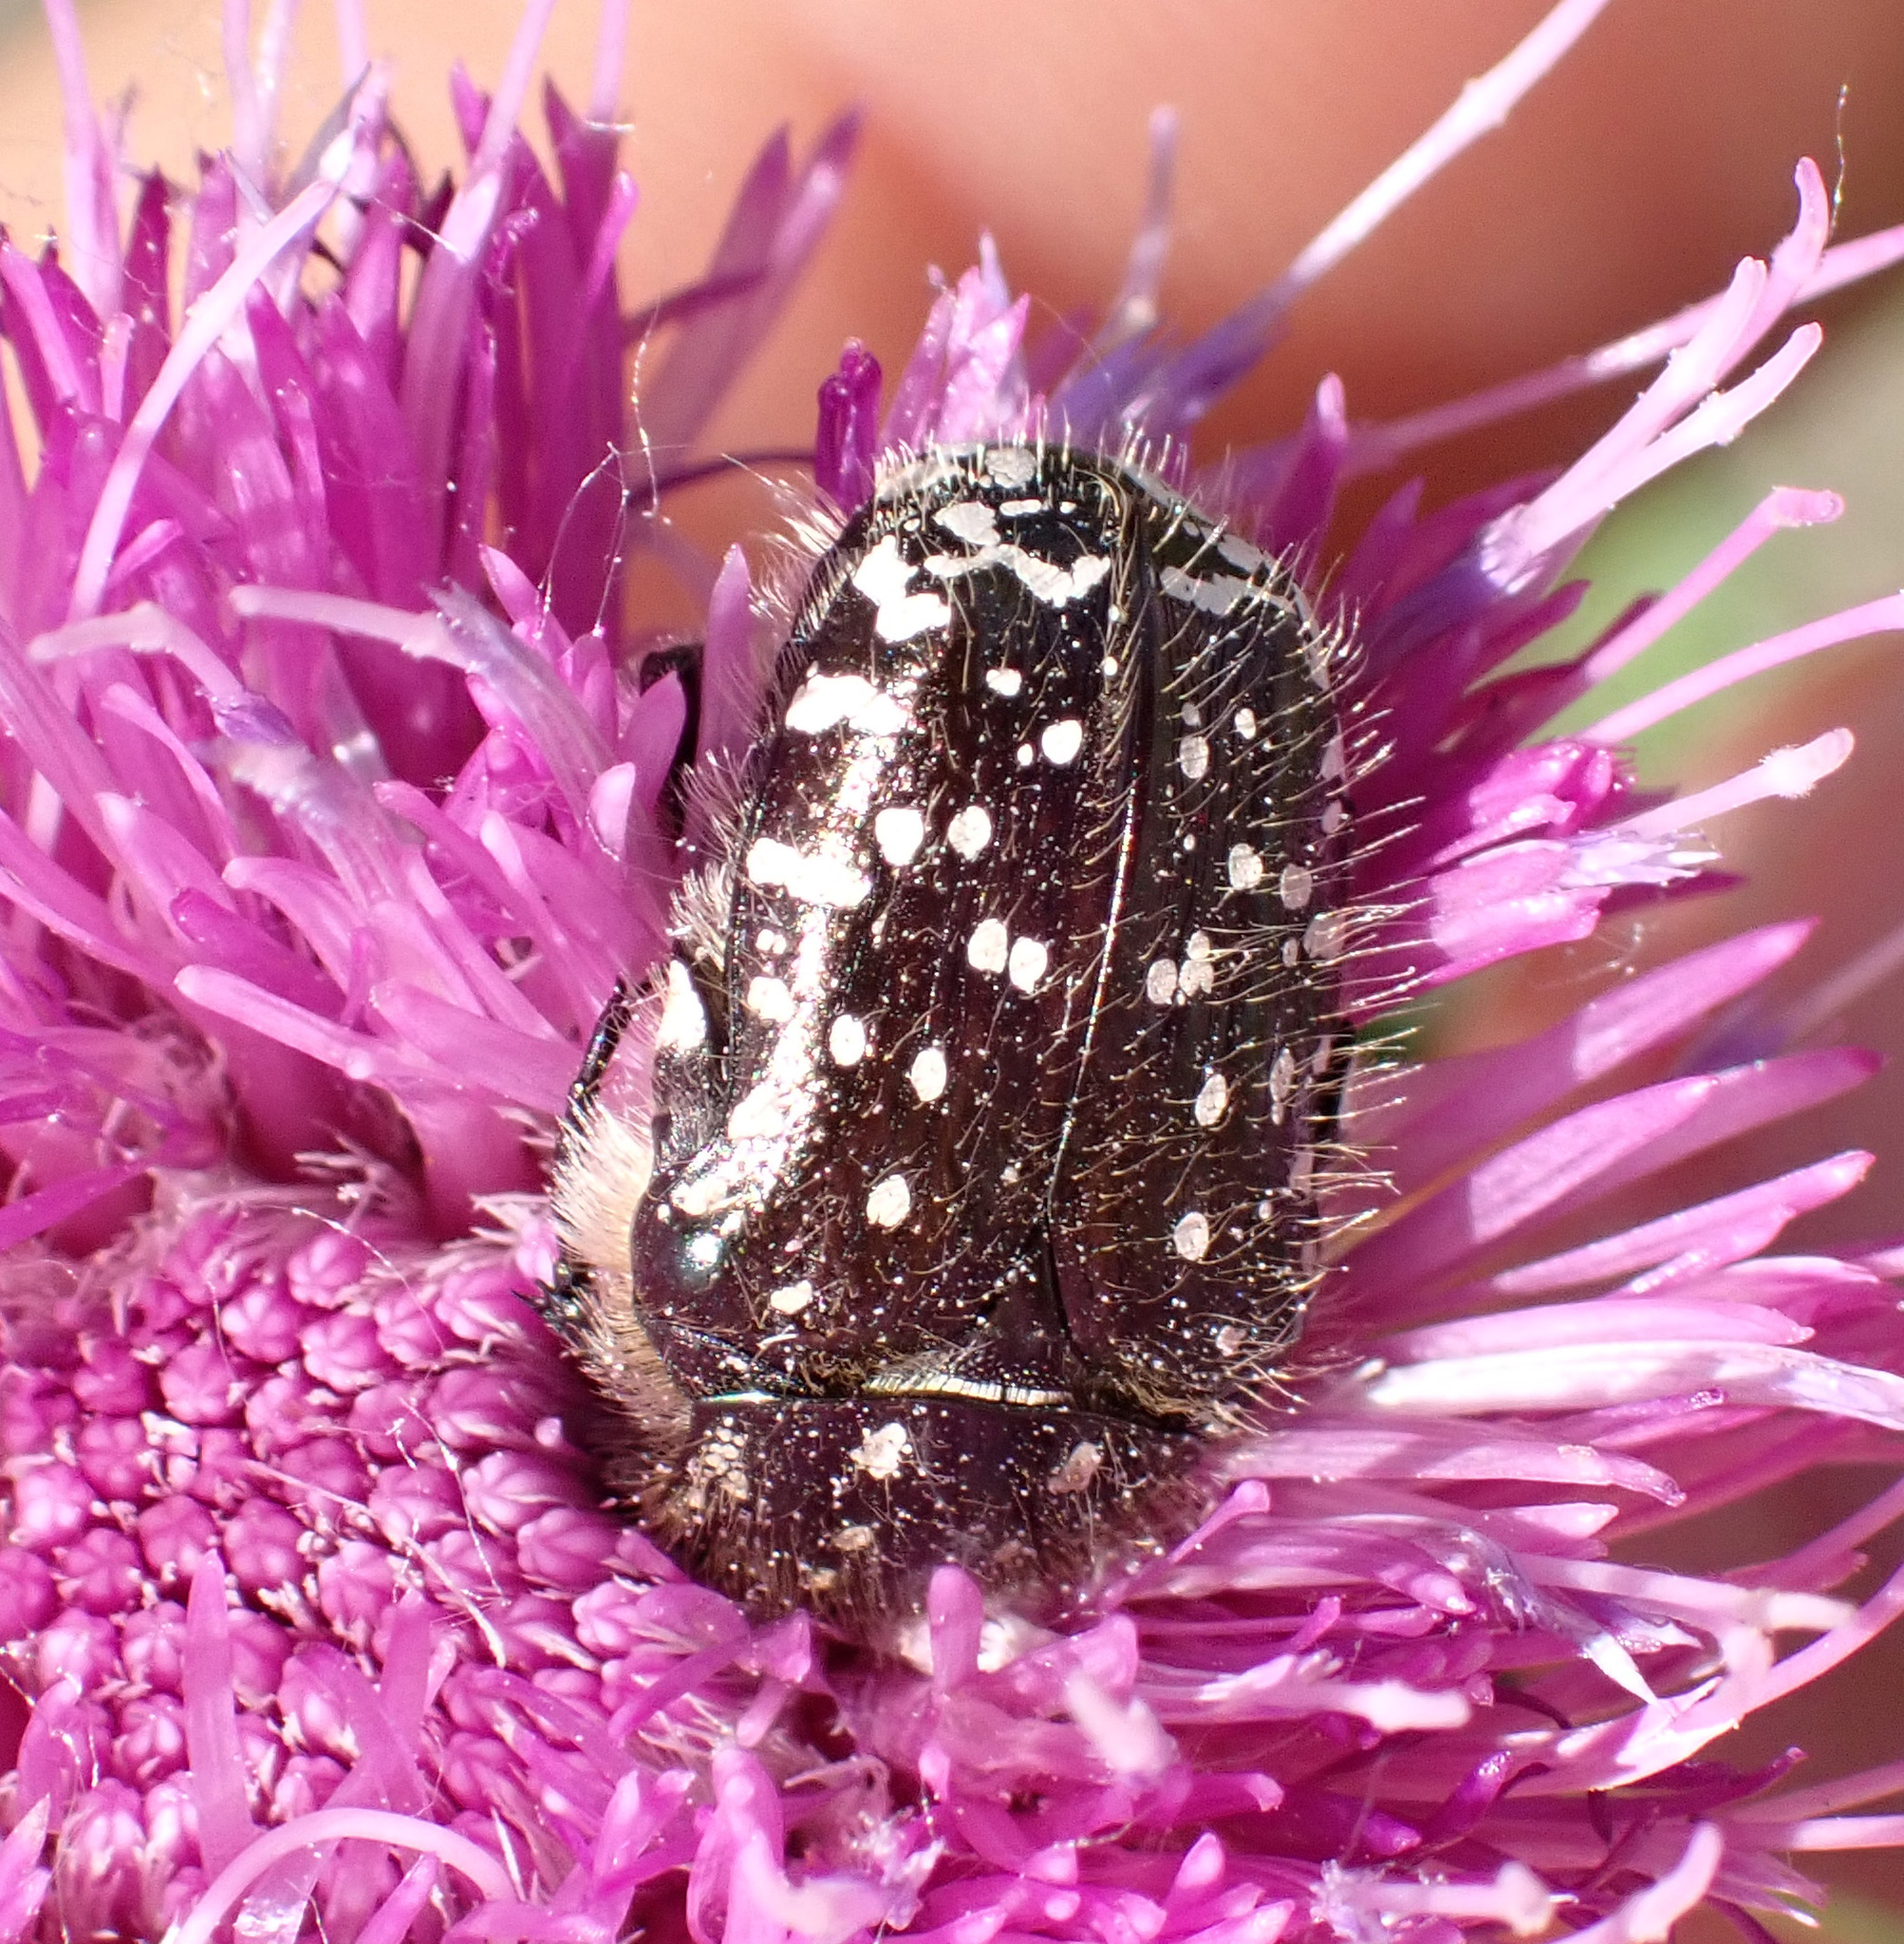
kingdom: Animalia
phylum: Arthropoda
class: Insecta
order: Coleoptera
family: Scarabaeidae
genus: Oxythyrea
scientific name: Oxythyrea funesta
